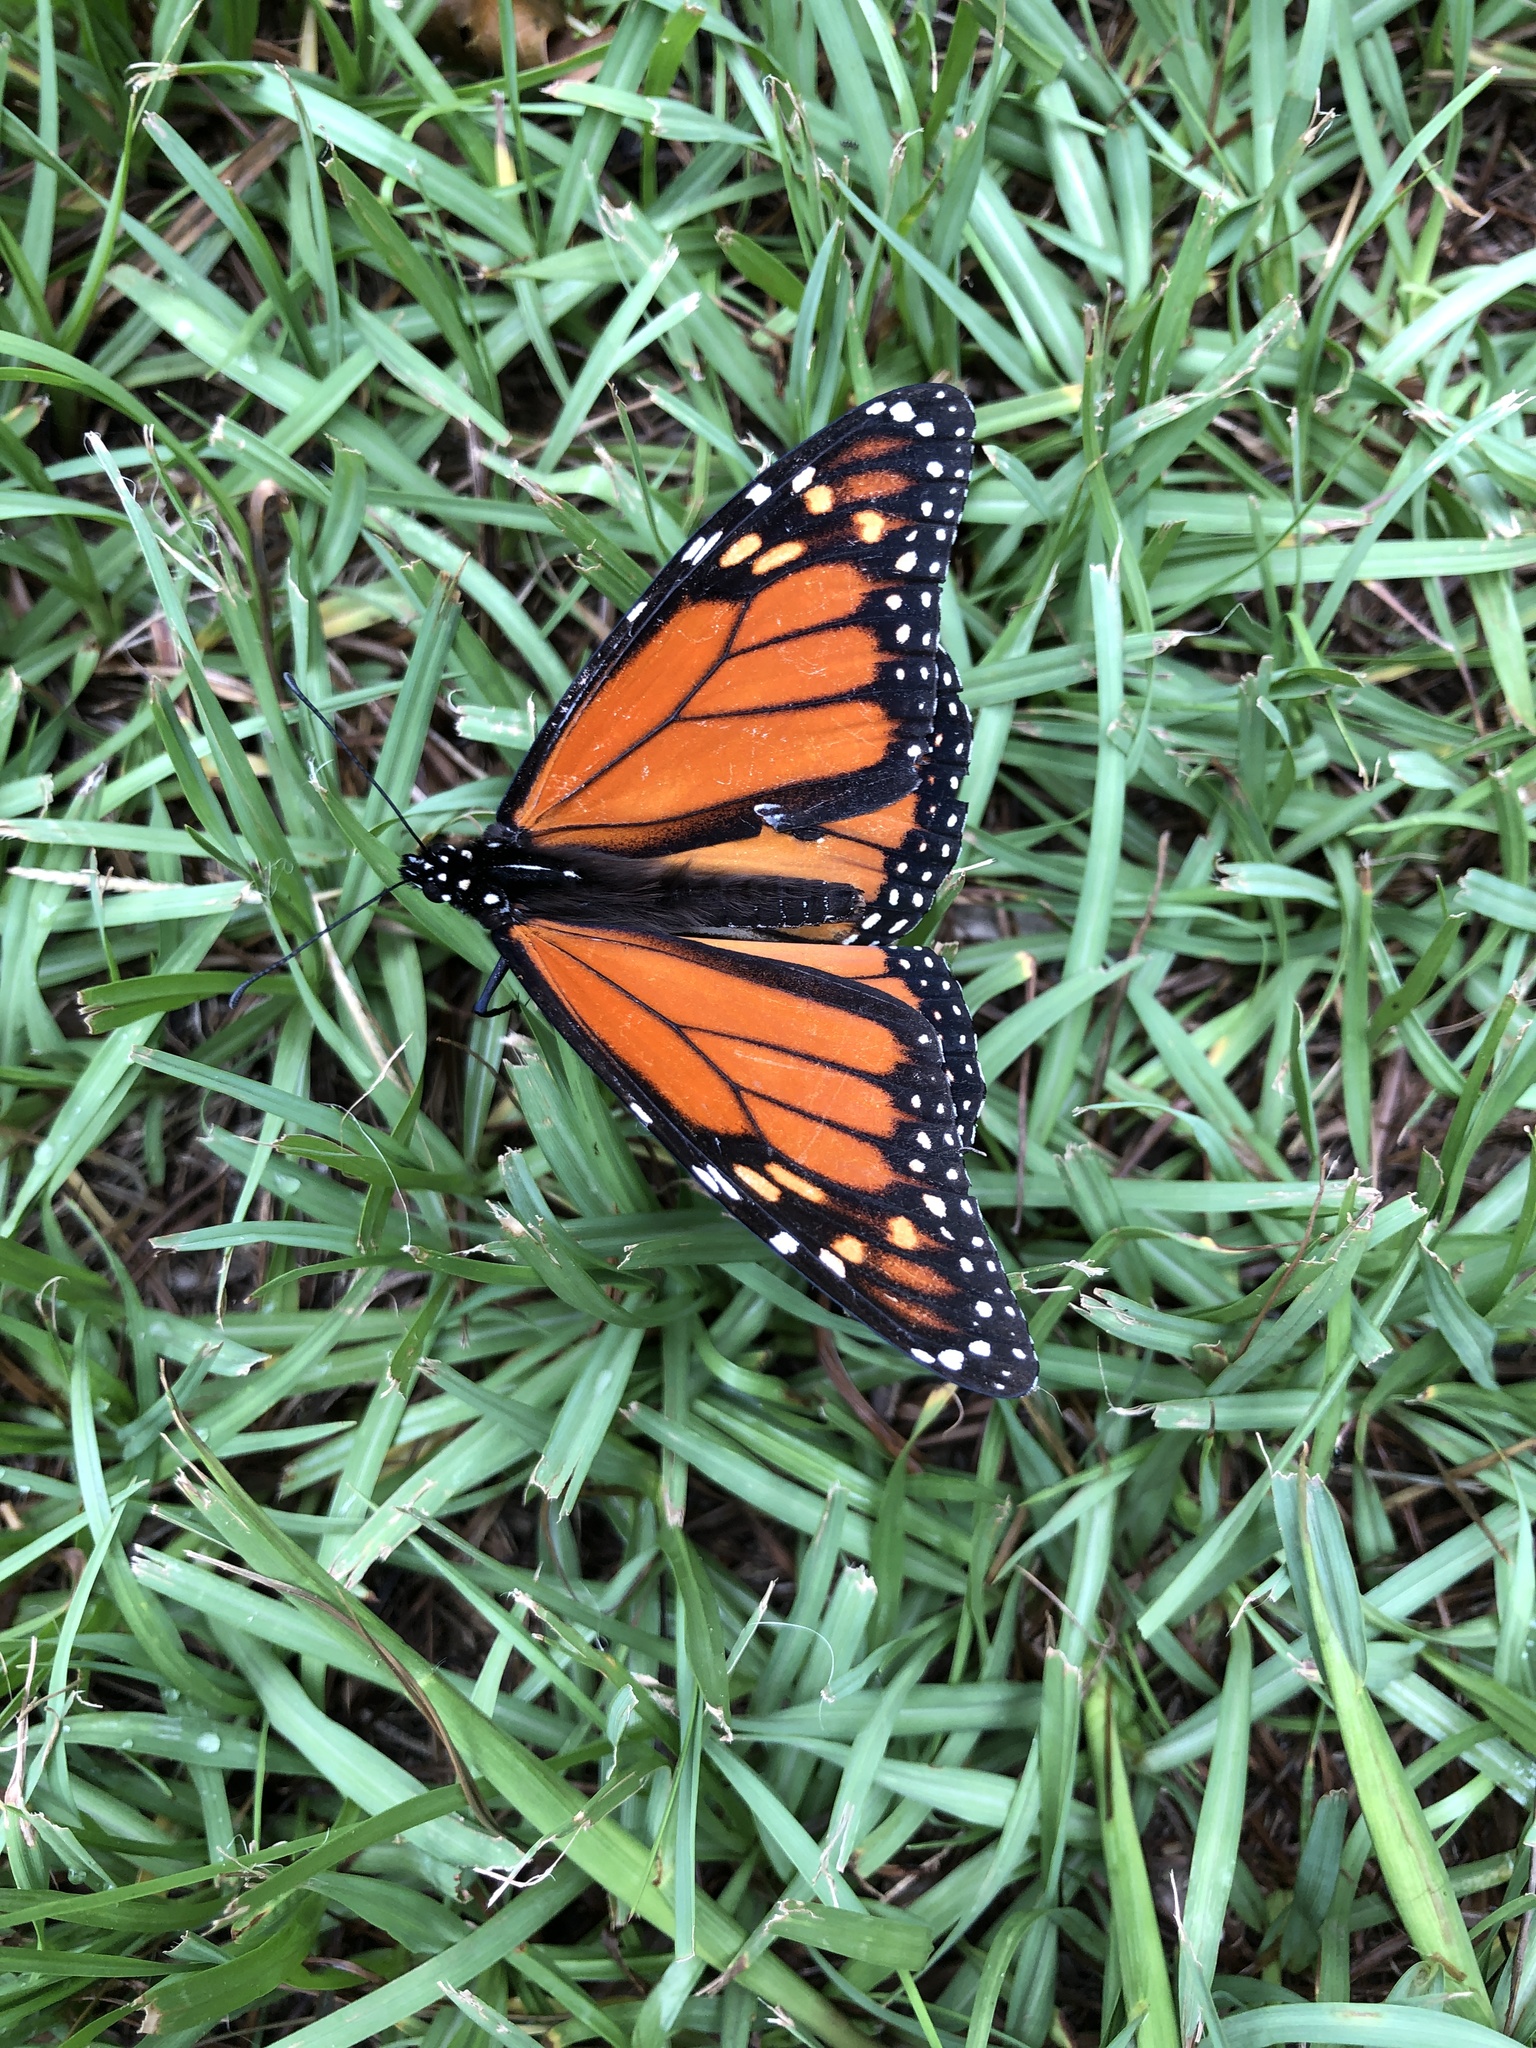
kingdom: Animalia
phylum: Arthropoda
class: Insecta
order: Lepidoptera
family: Nymphalidae
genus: Danaus
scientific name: Danaus plexippus
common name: Monarch
